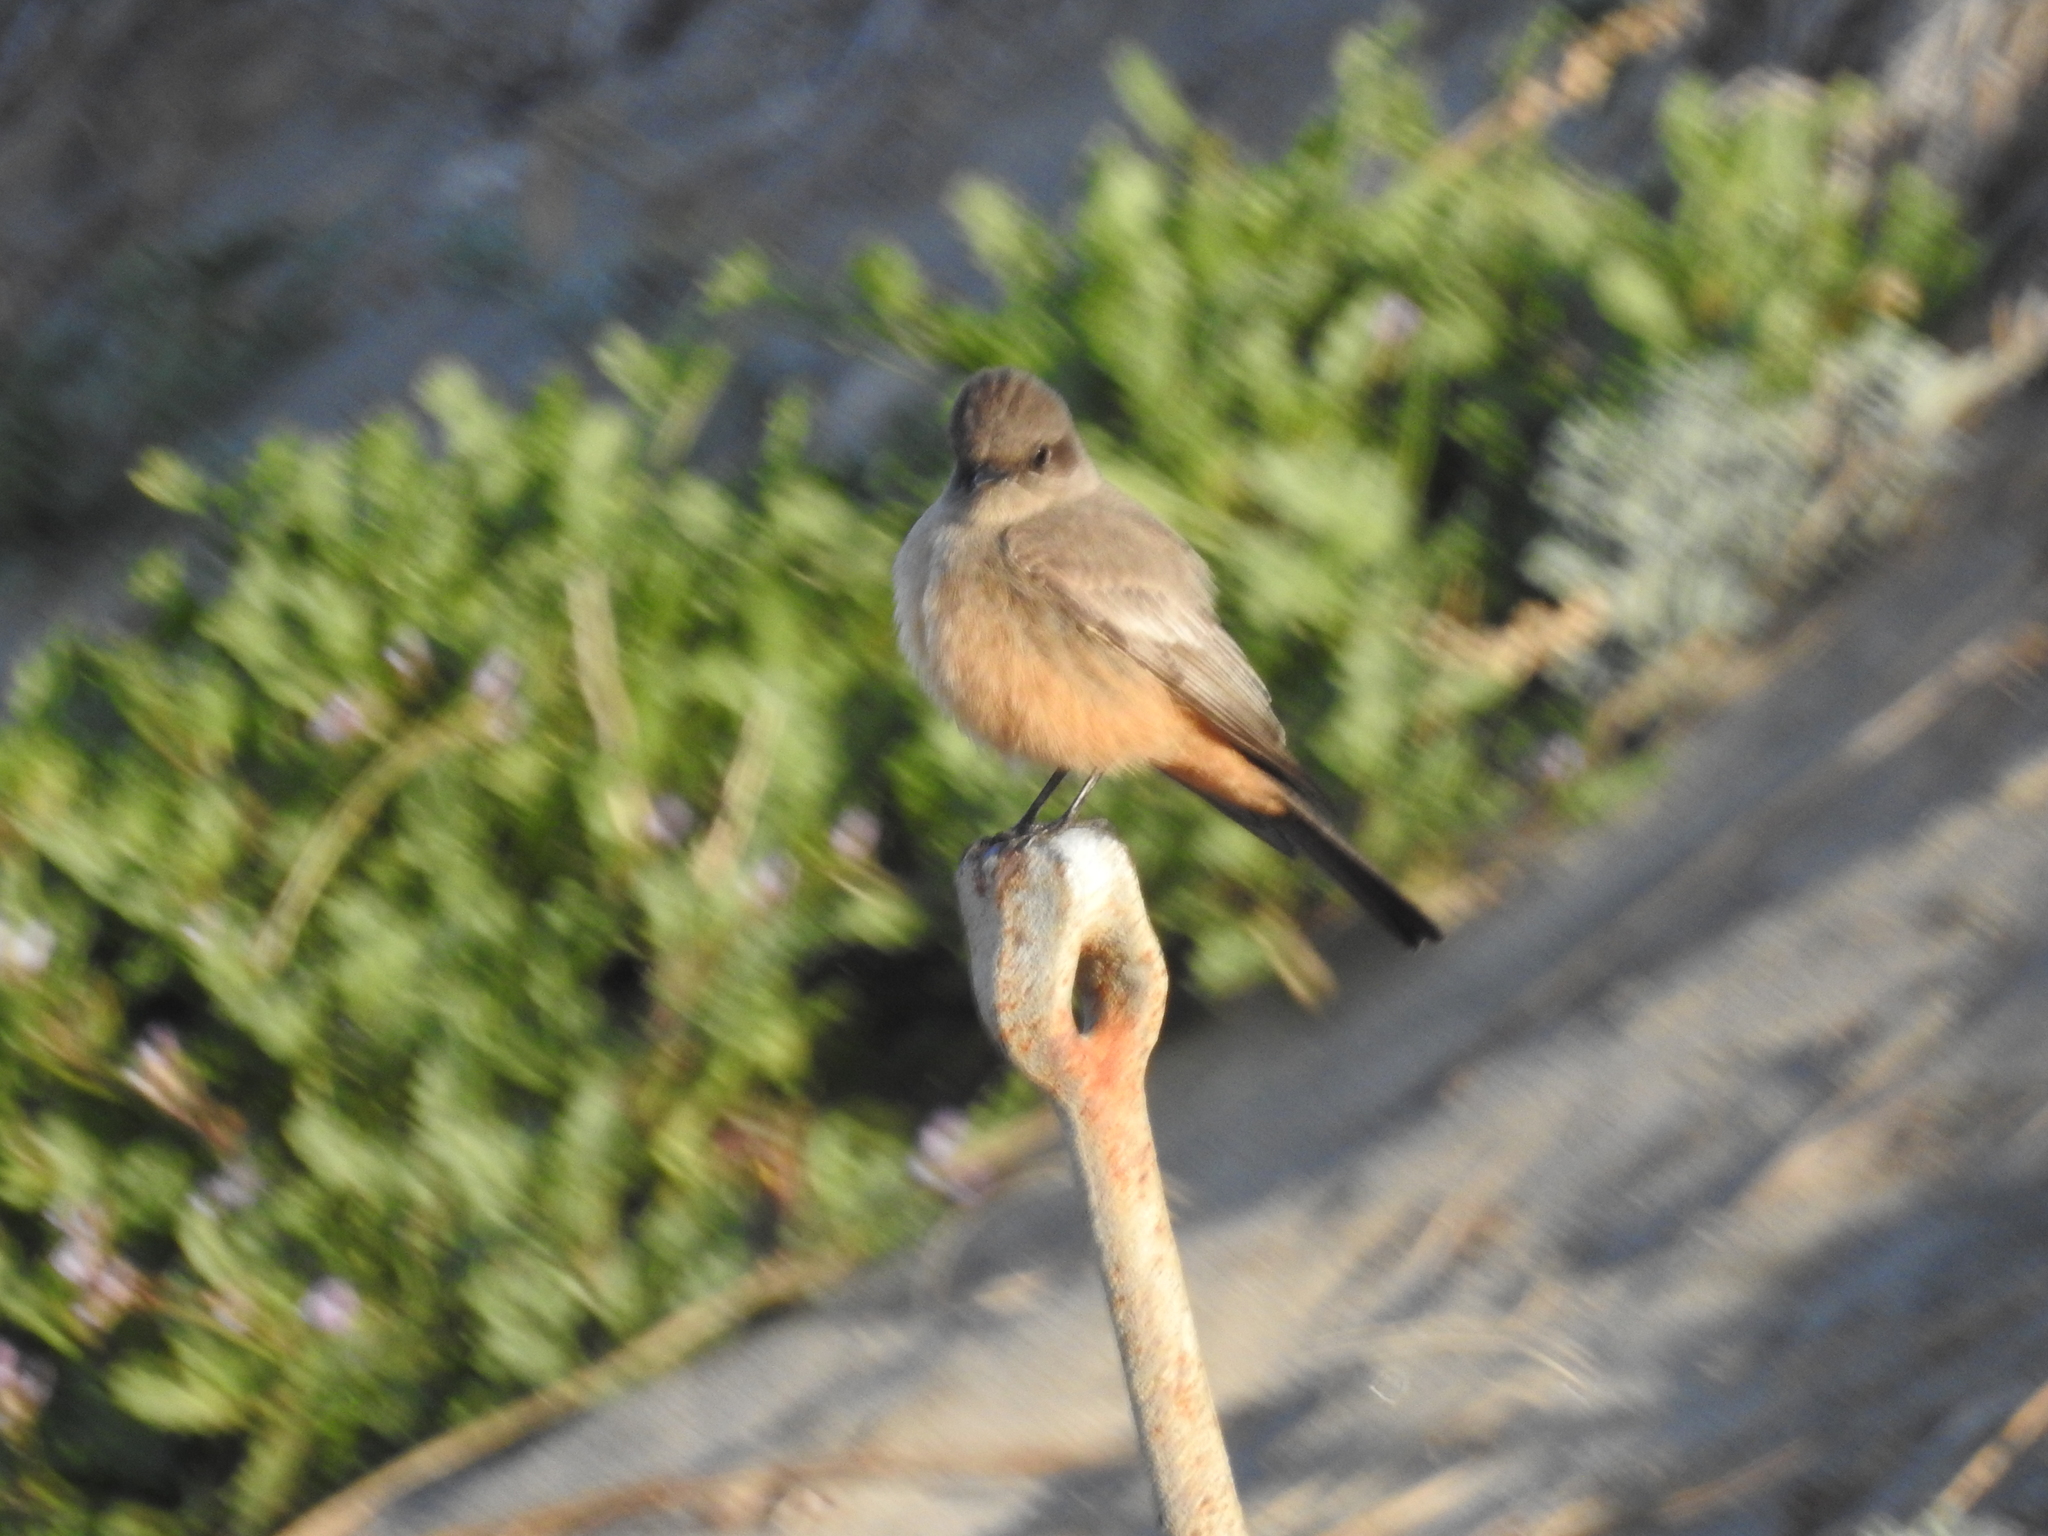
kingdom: Animalia
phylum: Chordata
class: Aves
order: Passeriformes
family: Tyrannidae
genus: Sayornis
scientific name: Sayornis saya
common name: Say's phoebe
